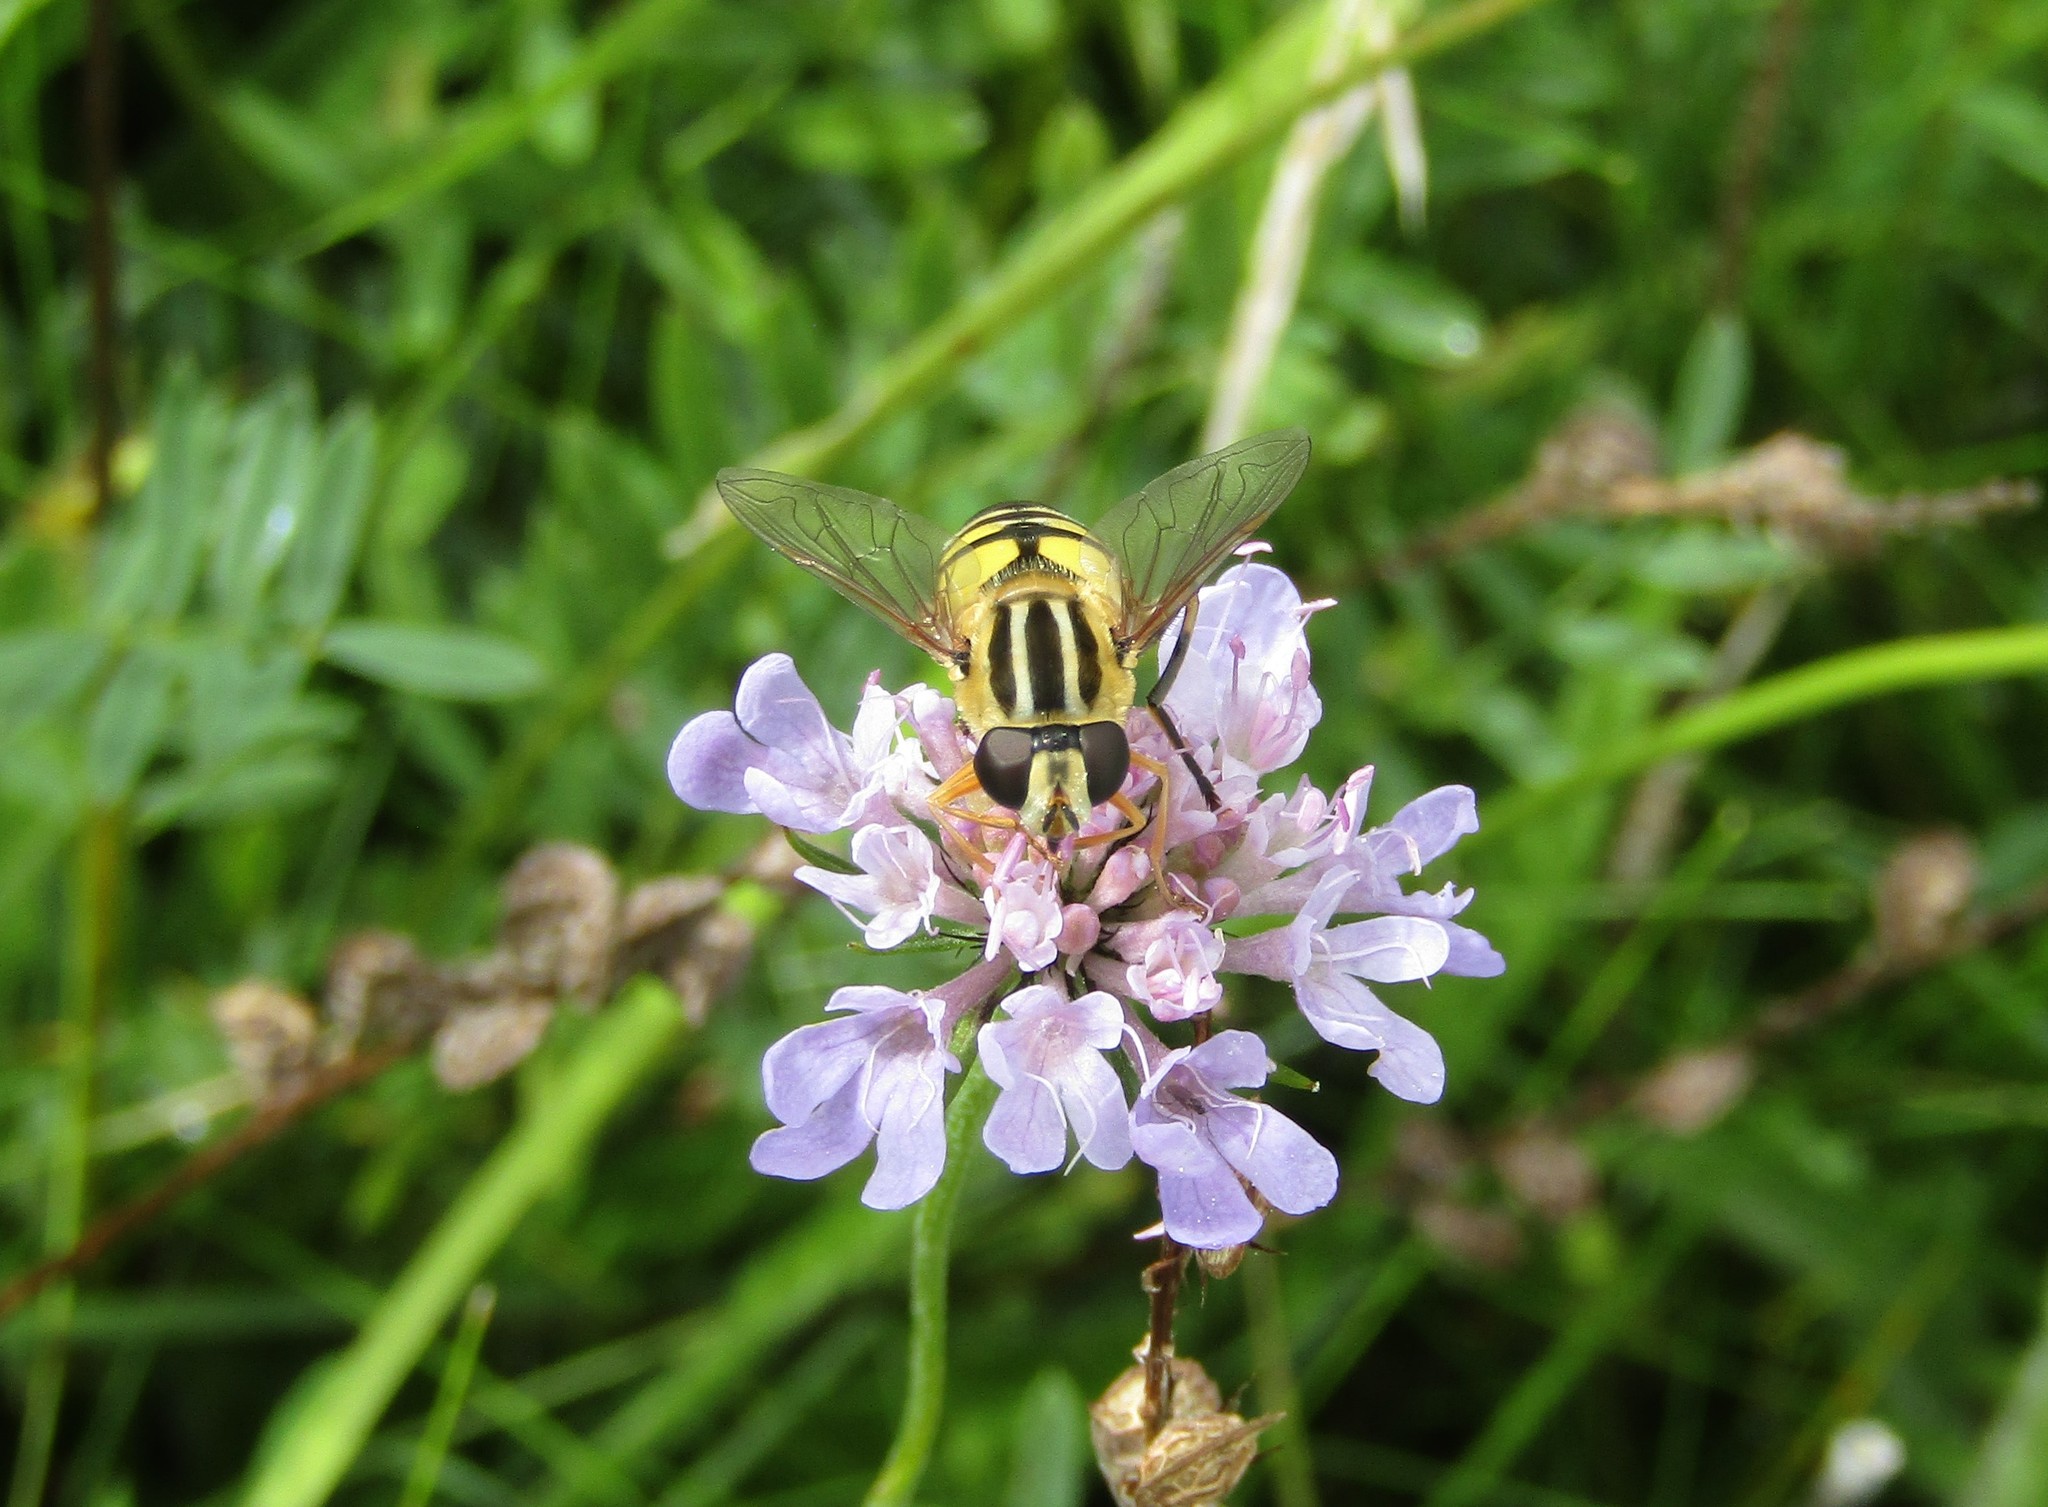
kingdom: Animalia
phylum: Arthropoda
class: Insecta
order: Diptera
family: Syrphidae
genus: Helophilus
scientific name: Helophilus trivittatus
